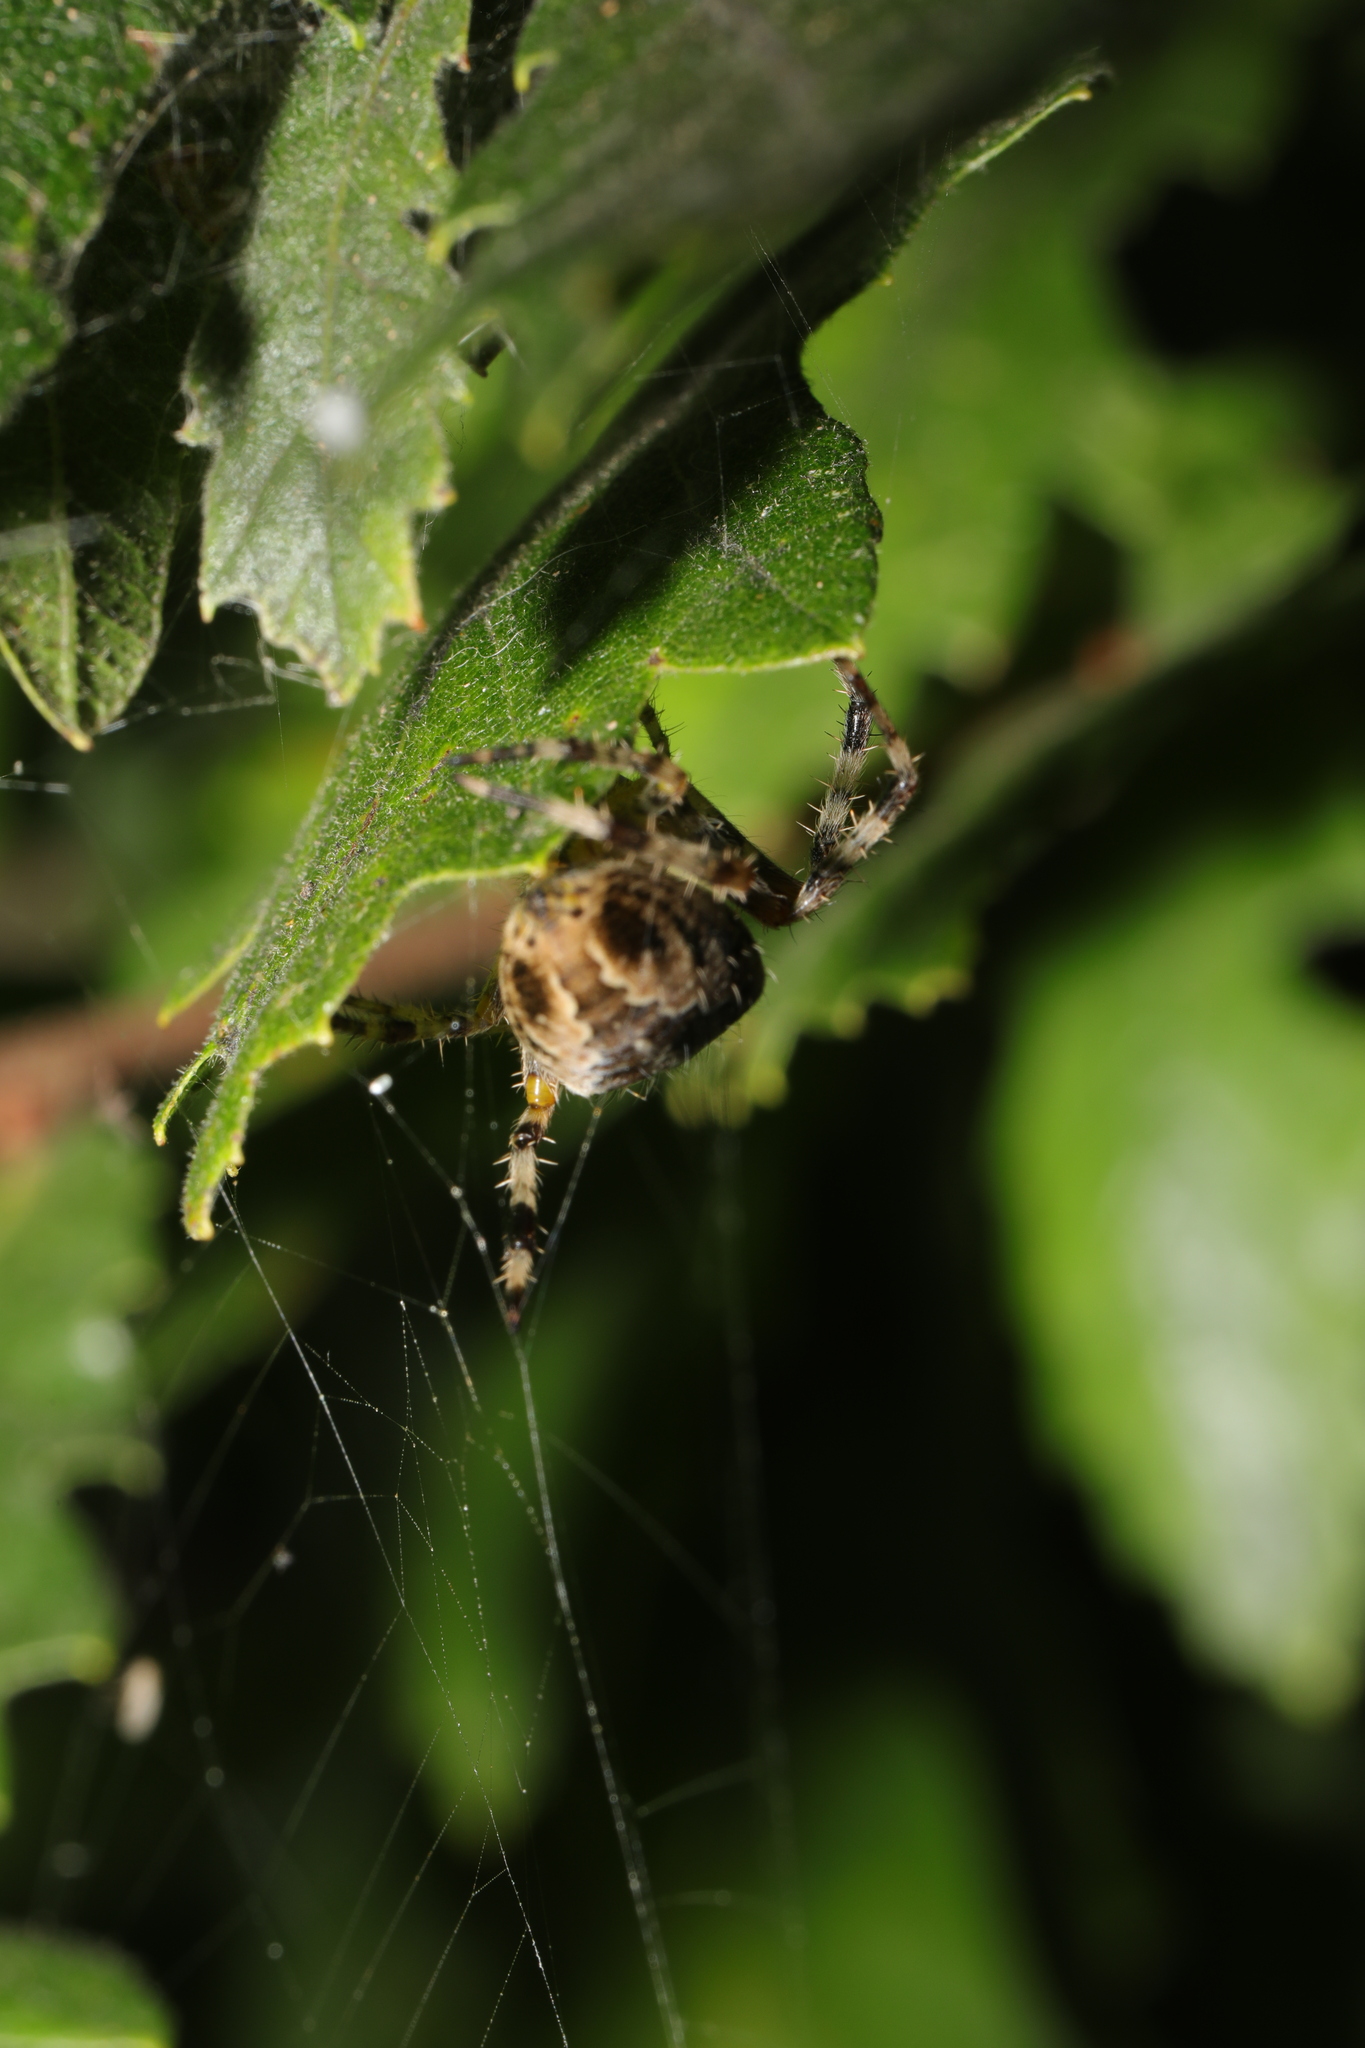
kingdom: Animalia
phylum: Arthropoda
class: Arachnida
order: Araneae
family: Araneidae
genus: Araneus
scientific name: Araneus diadematus
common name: Cross orbweaver
